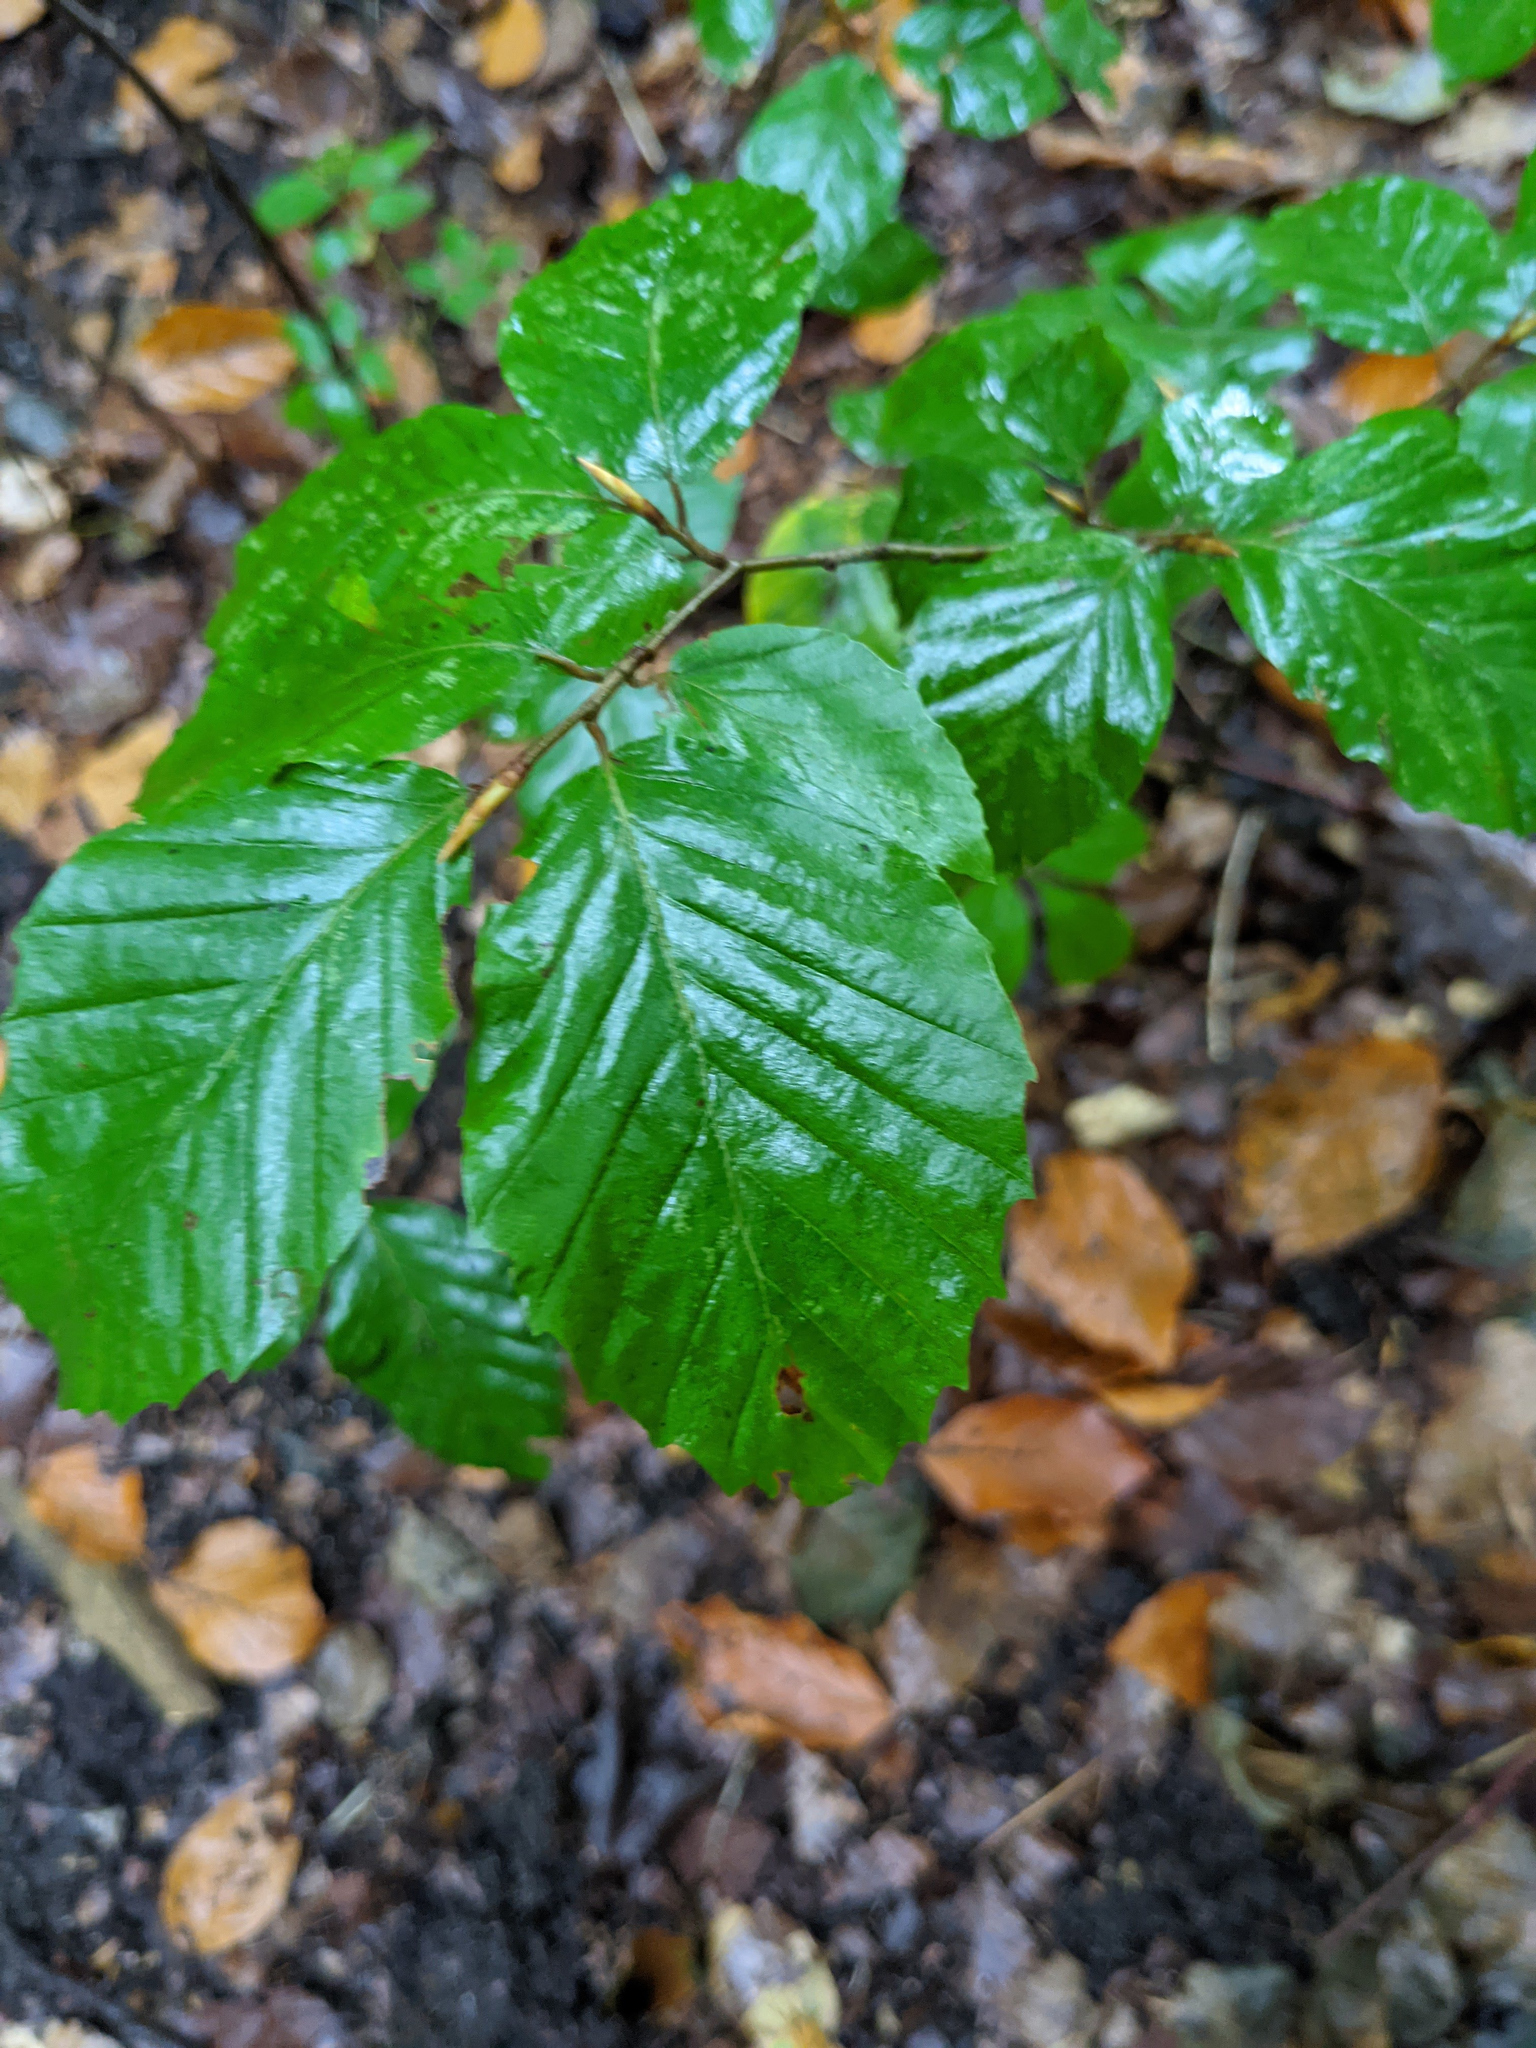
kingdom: Plantae
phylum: Tracheophyta
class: Magnoliopsida
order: Fagales
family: Fagaceae
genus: Fagus
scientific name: Fagus sylvatica
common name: Beech
